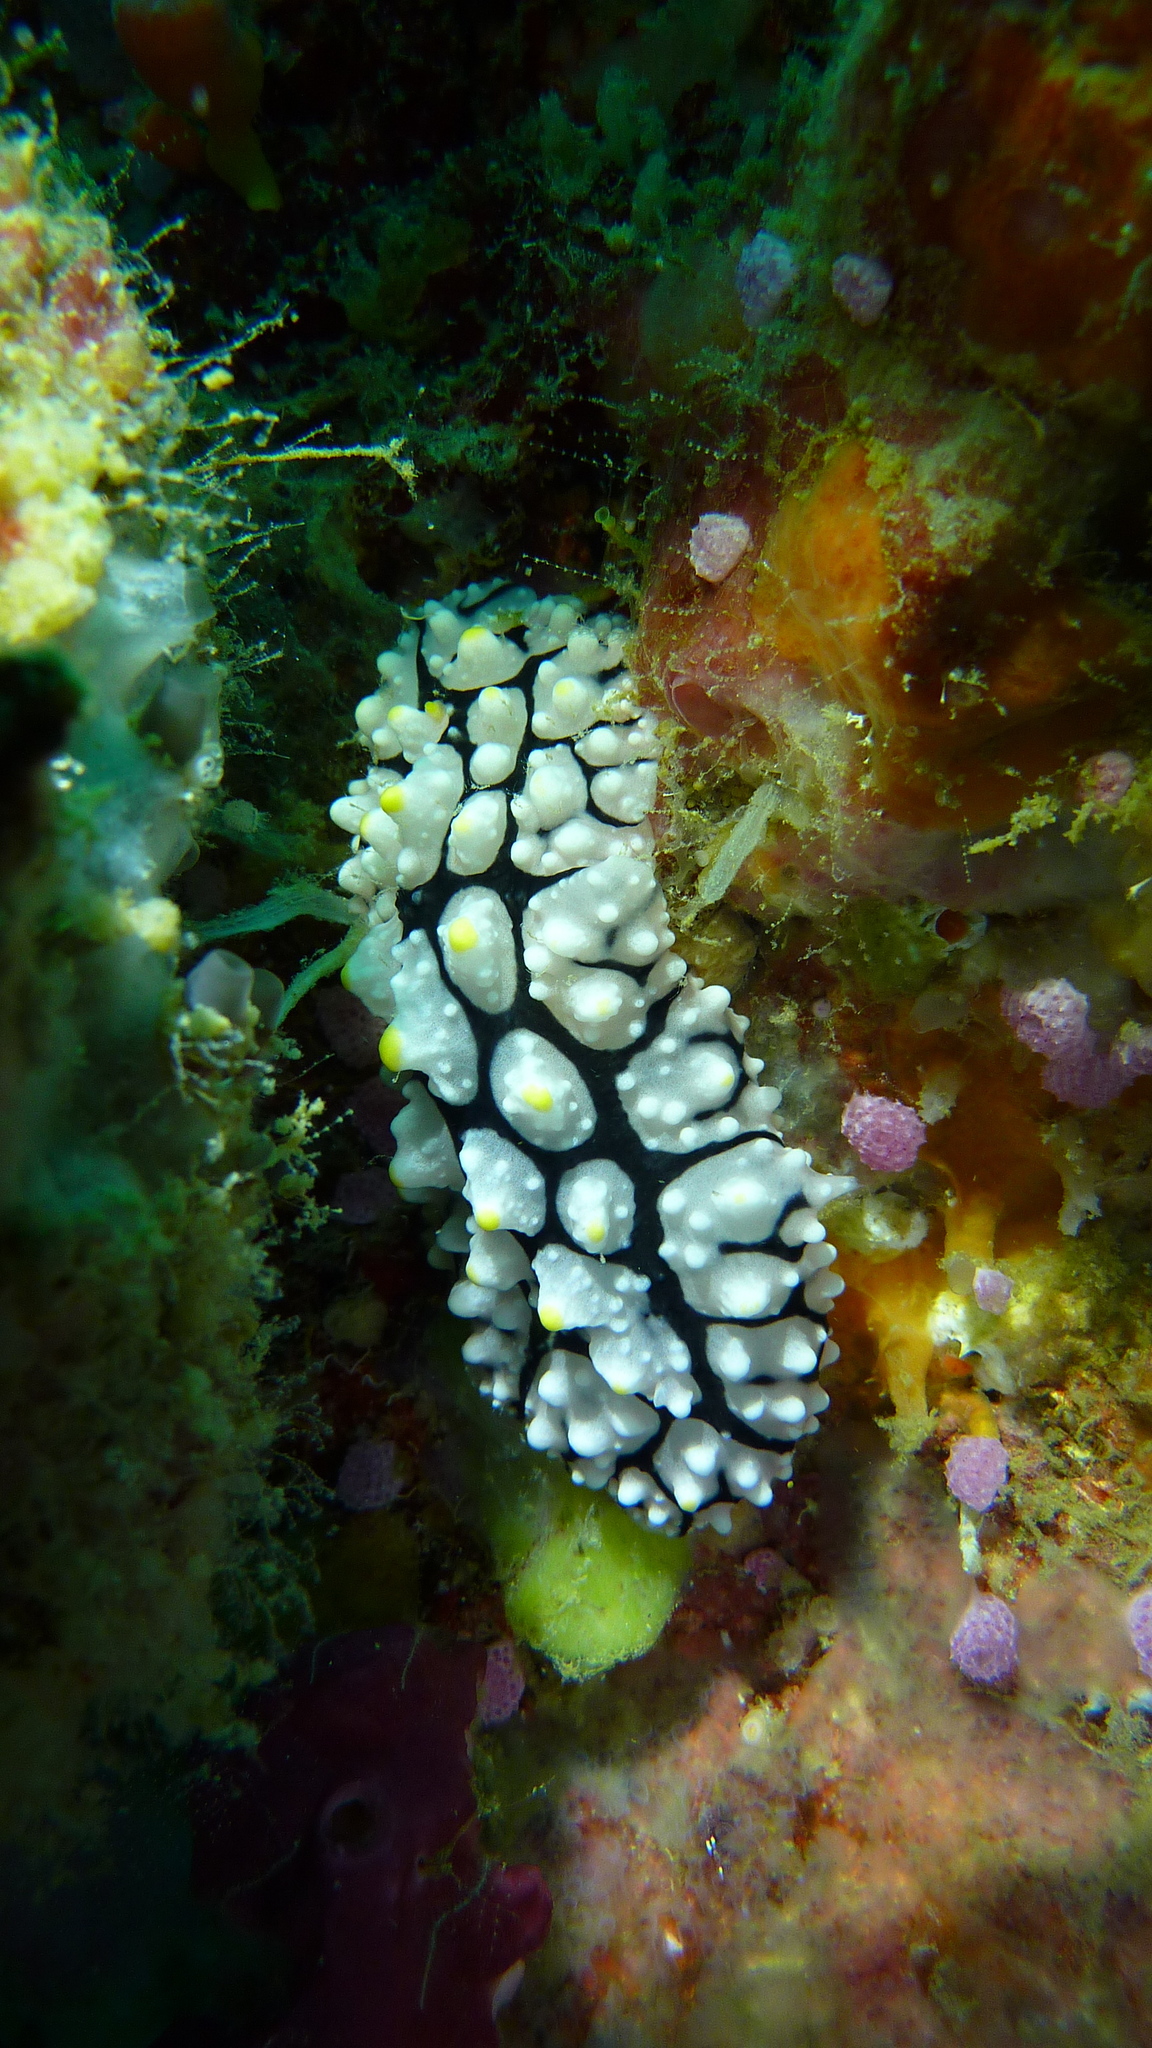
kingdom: Animalia
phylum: Mollusca
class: Gastropoda
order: Nudibranchia
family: Phyllidiidae
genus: Phyllidia
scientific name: Phyllidia elegans
